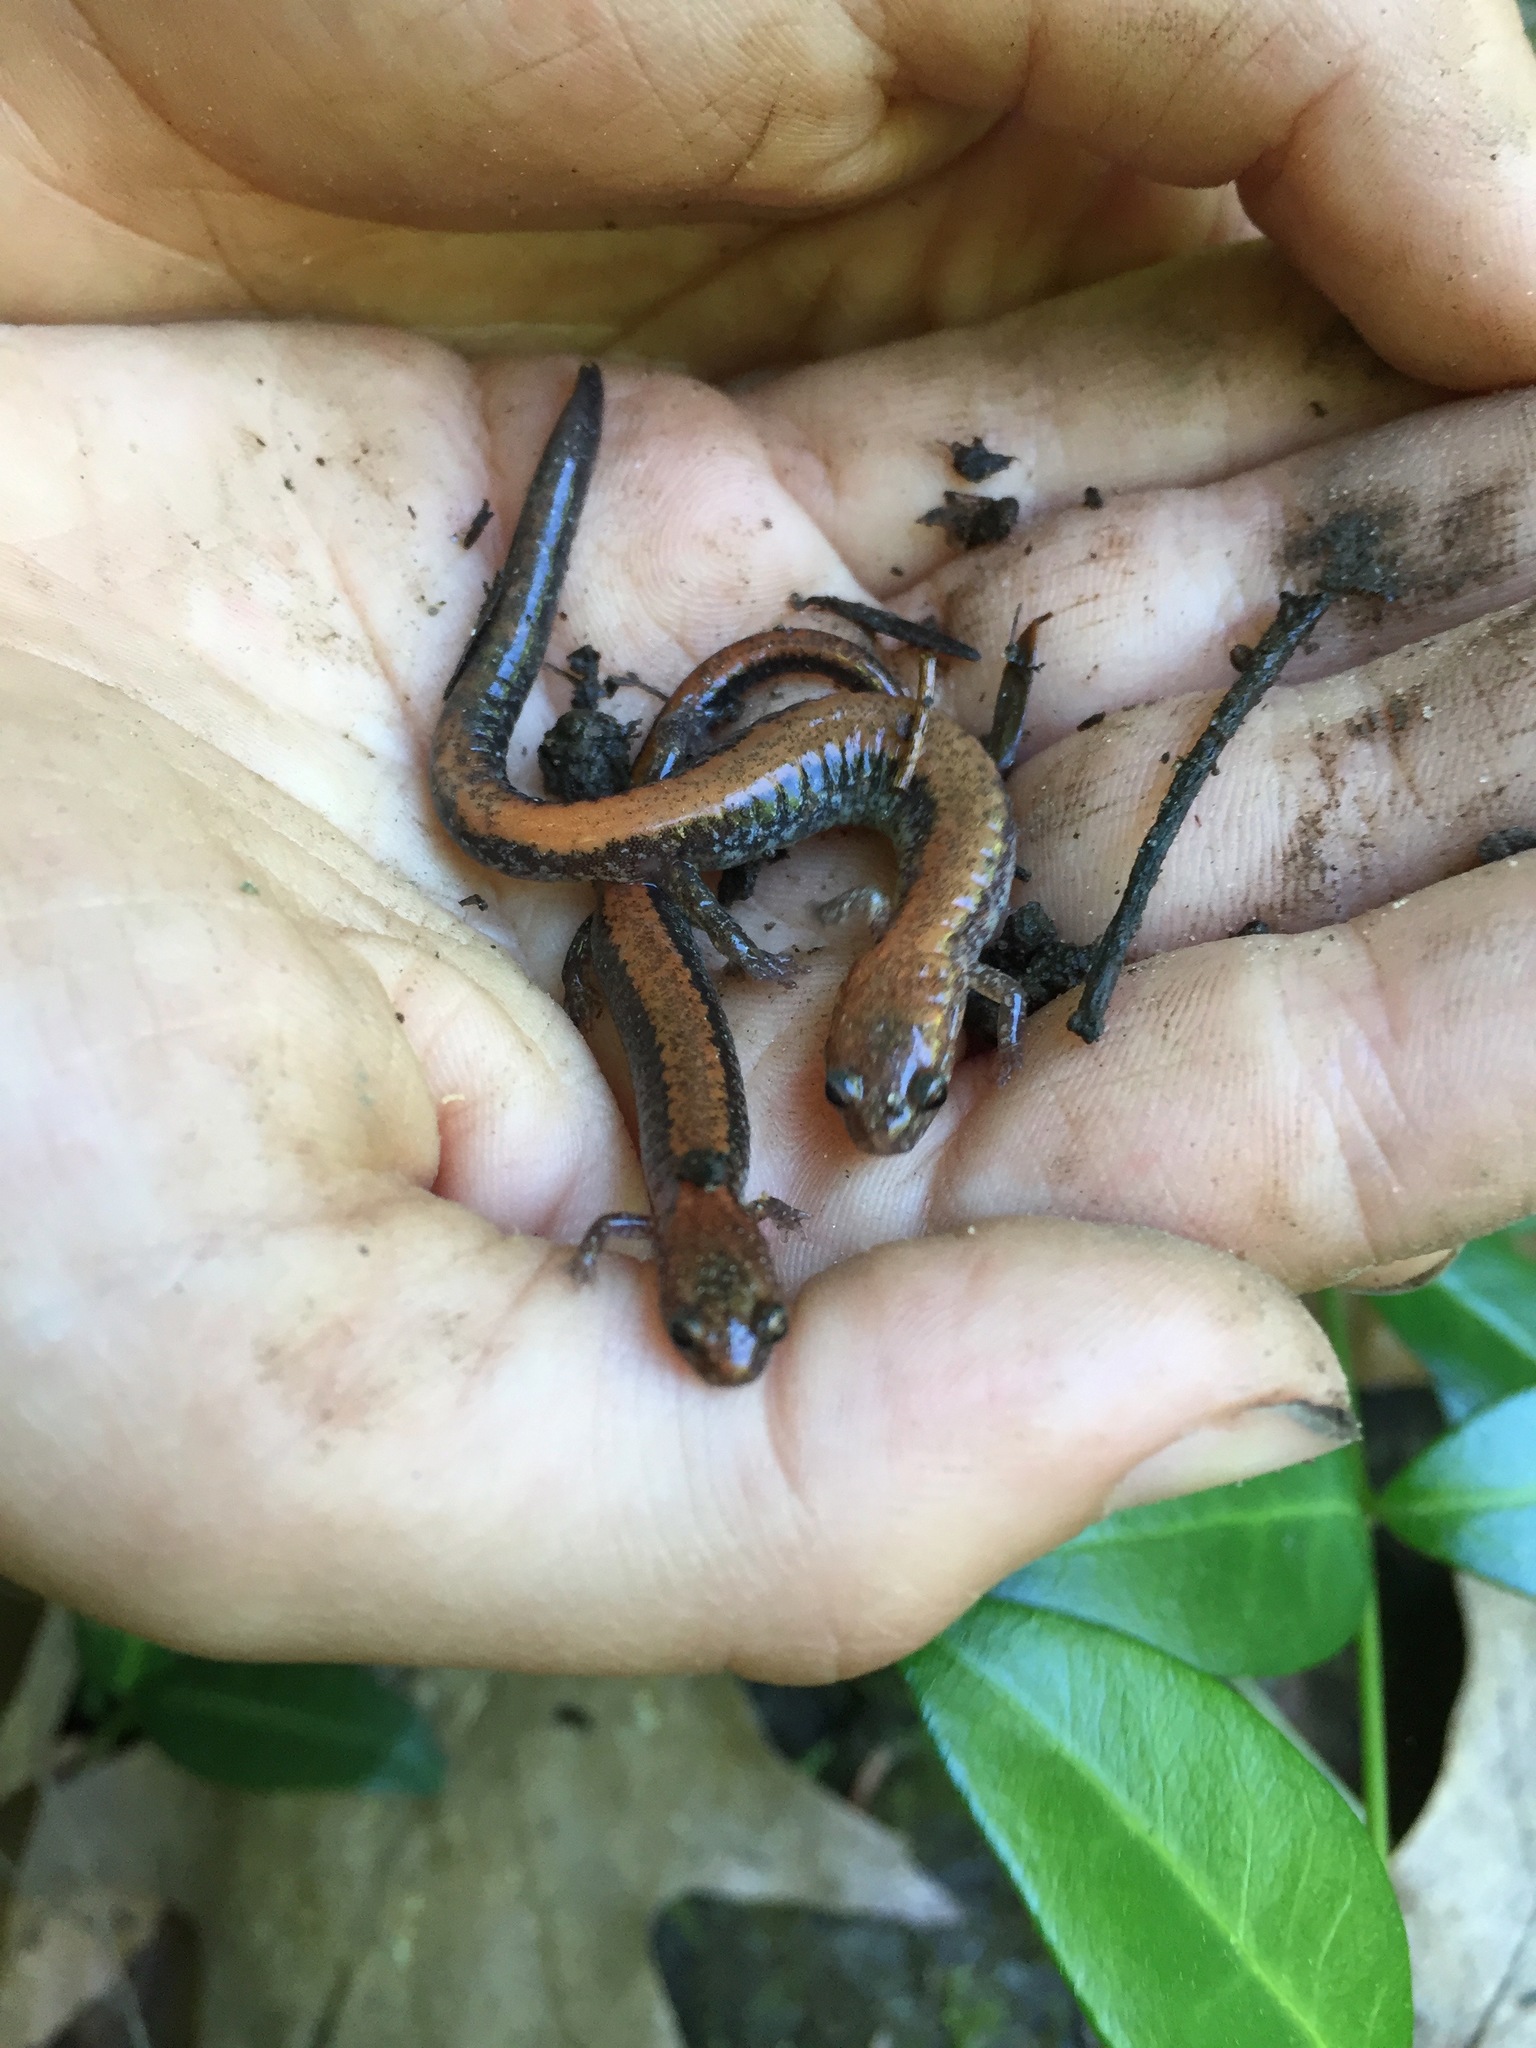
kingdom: Animalia
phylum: Chordata
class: Amphibia
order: Caudata
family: Plethodontidae
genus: Plethodon
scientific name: Plethodon cinereus
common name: Redback salamander
